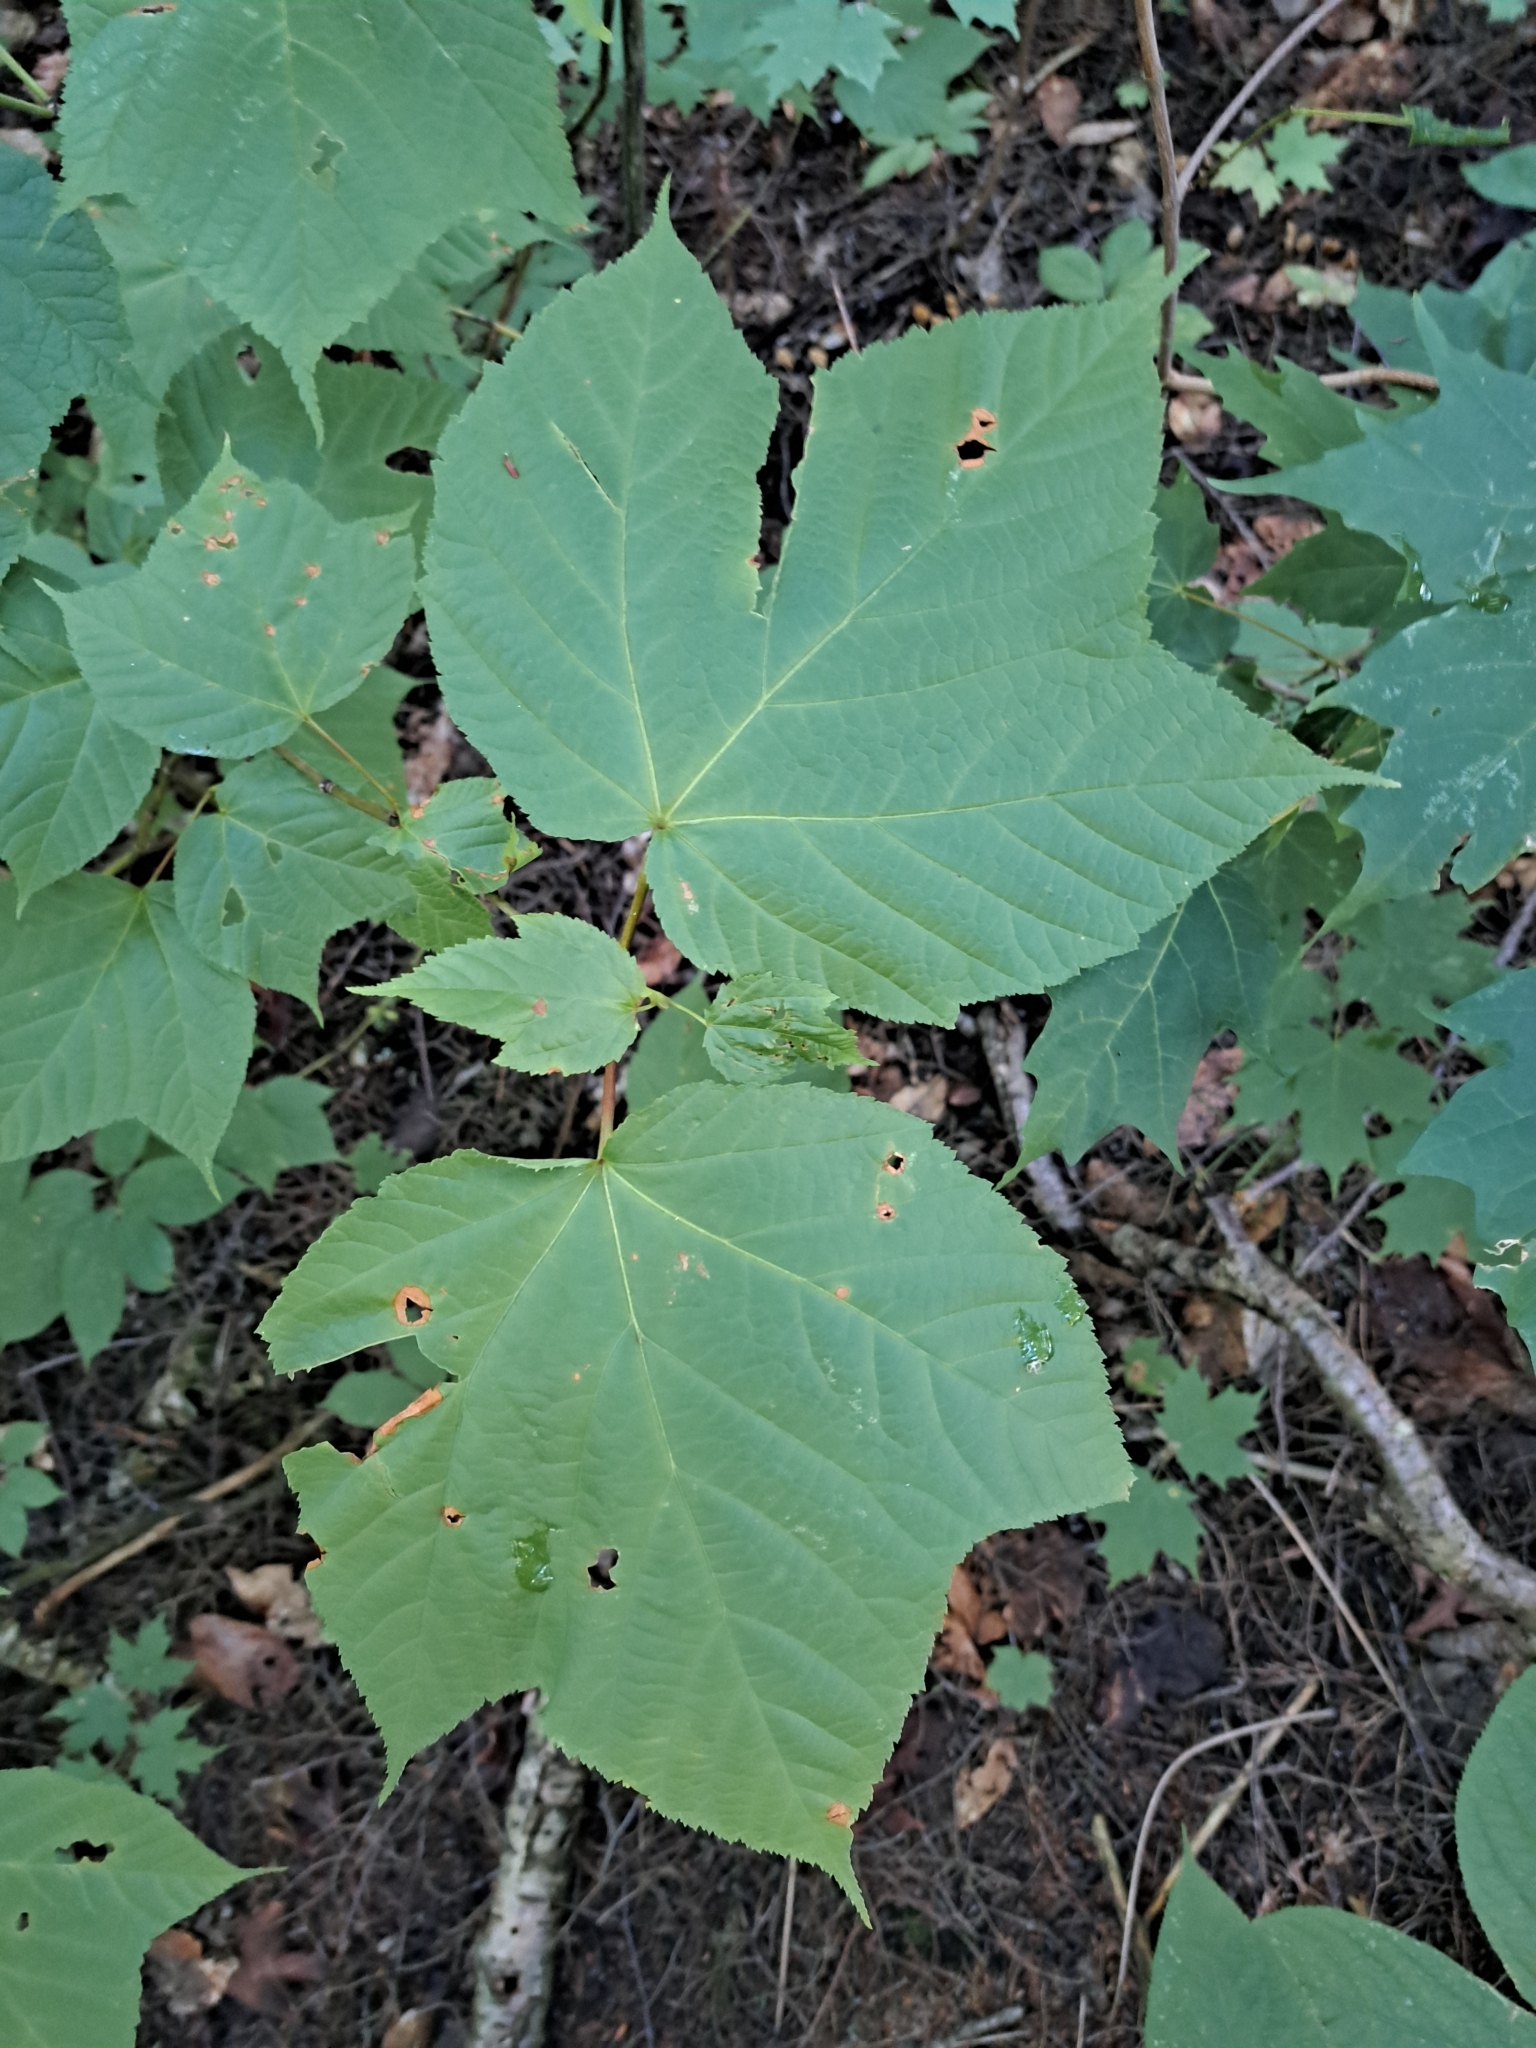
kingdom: Plantae
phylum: Tracheophyta
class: Magnoliopsida
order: Sapindales
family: Sapindaceae
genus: Acer
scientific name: Acer pensylvanicum
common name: Moosewood
